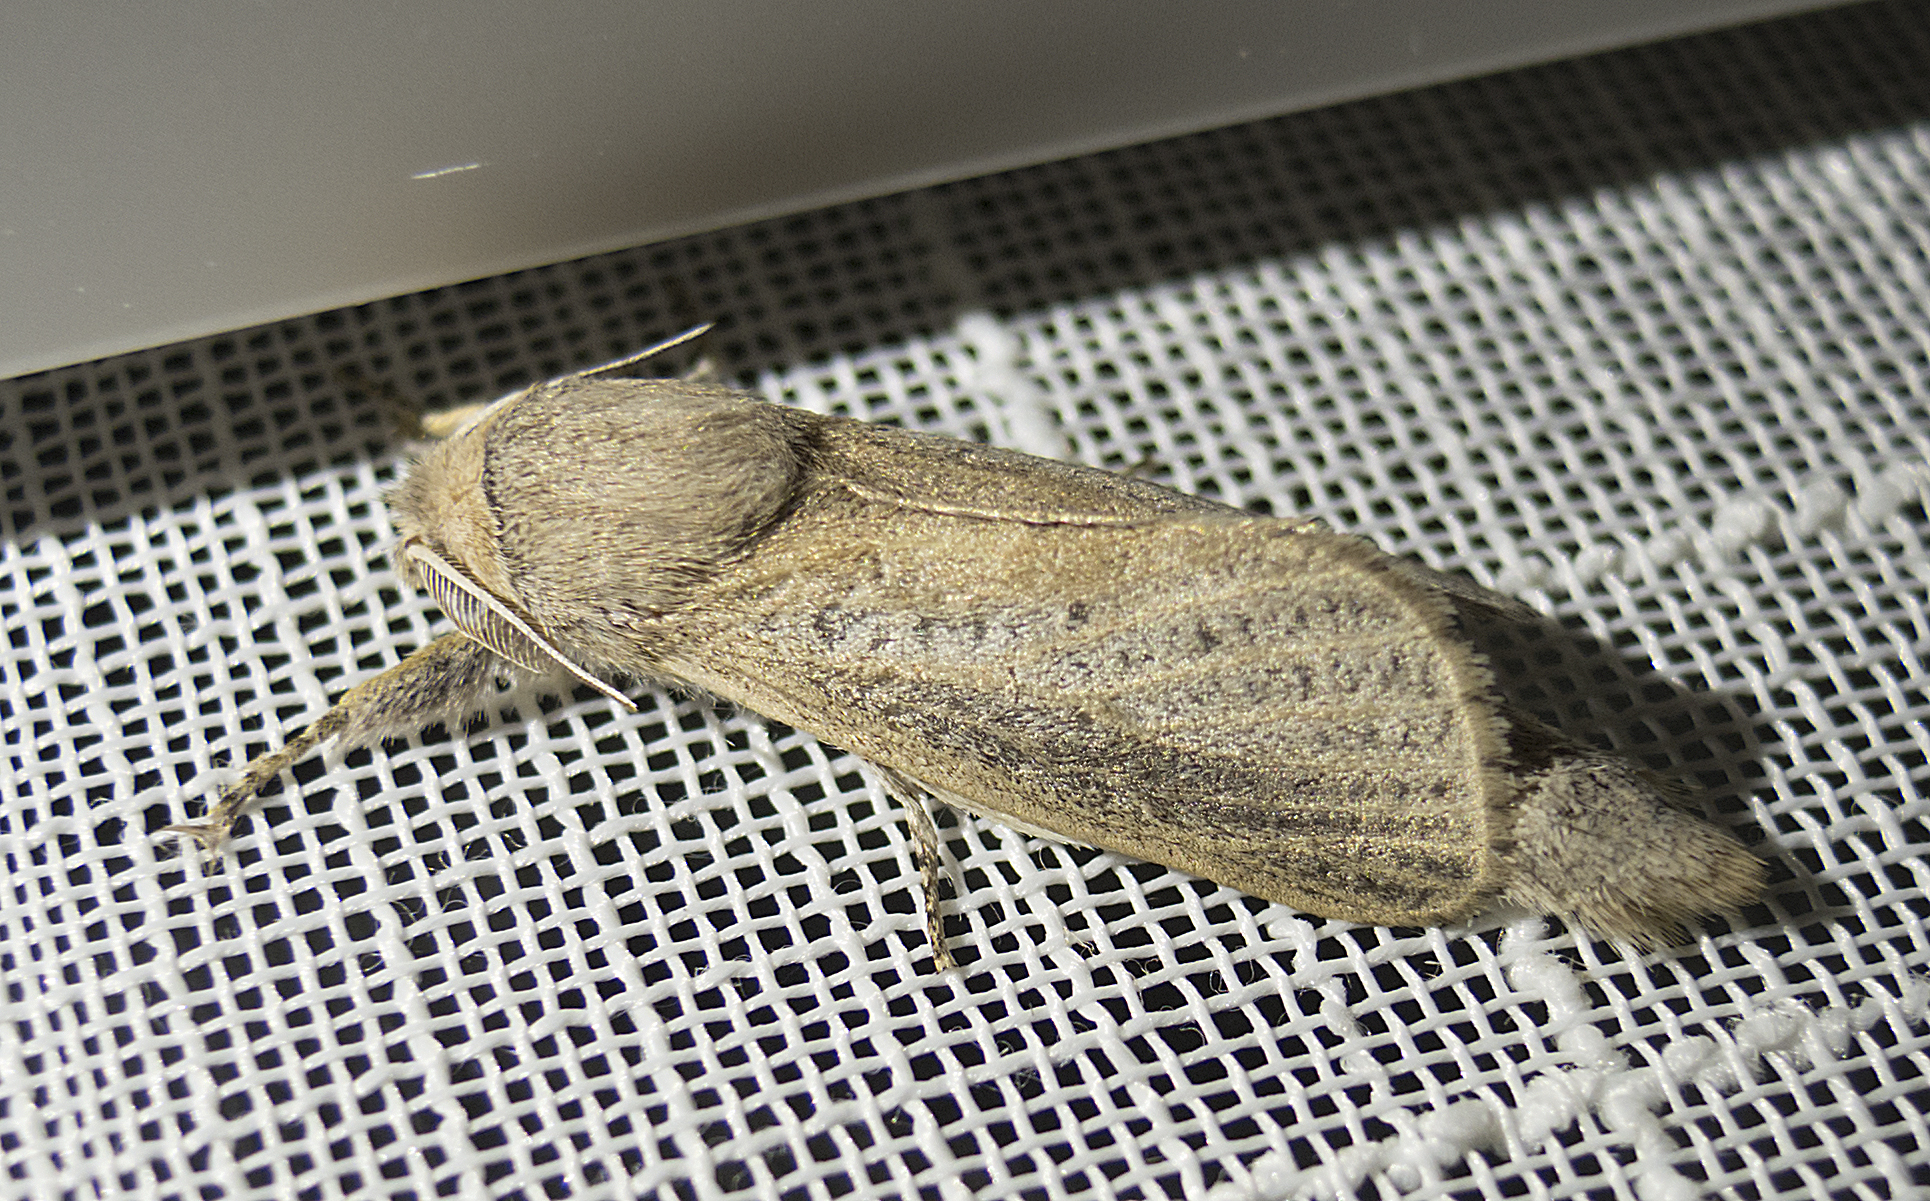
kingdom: Animalia
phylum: Arthropoda
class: Insecta
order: Lepidoptera
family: Cossidae
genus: Phragmataecia
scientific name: Phragmataecia castaneae
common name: Reed leopard
